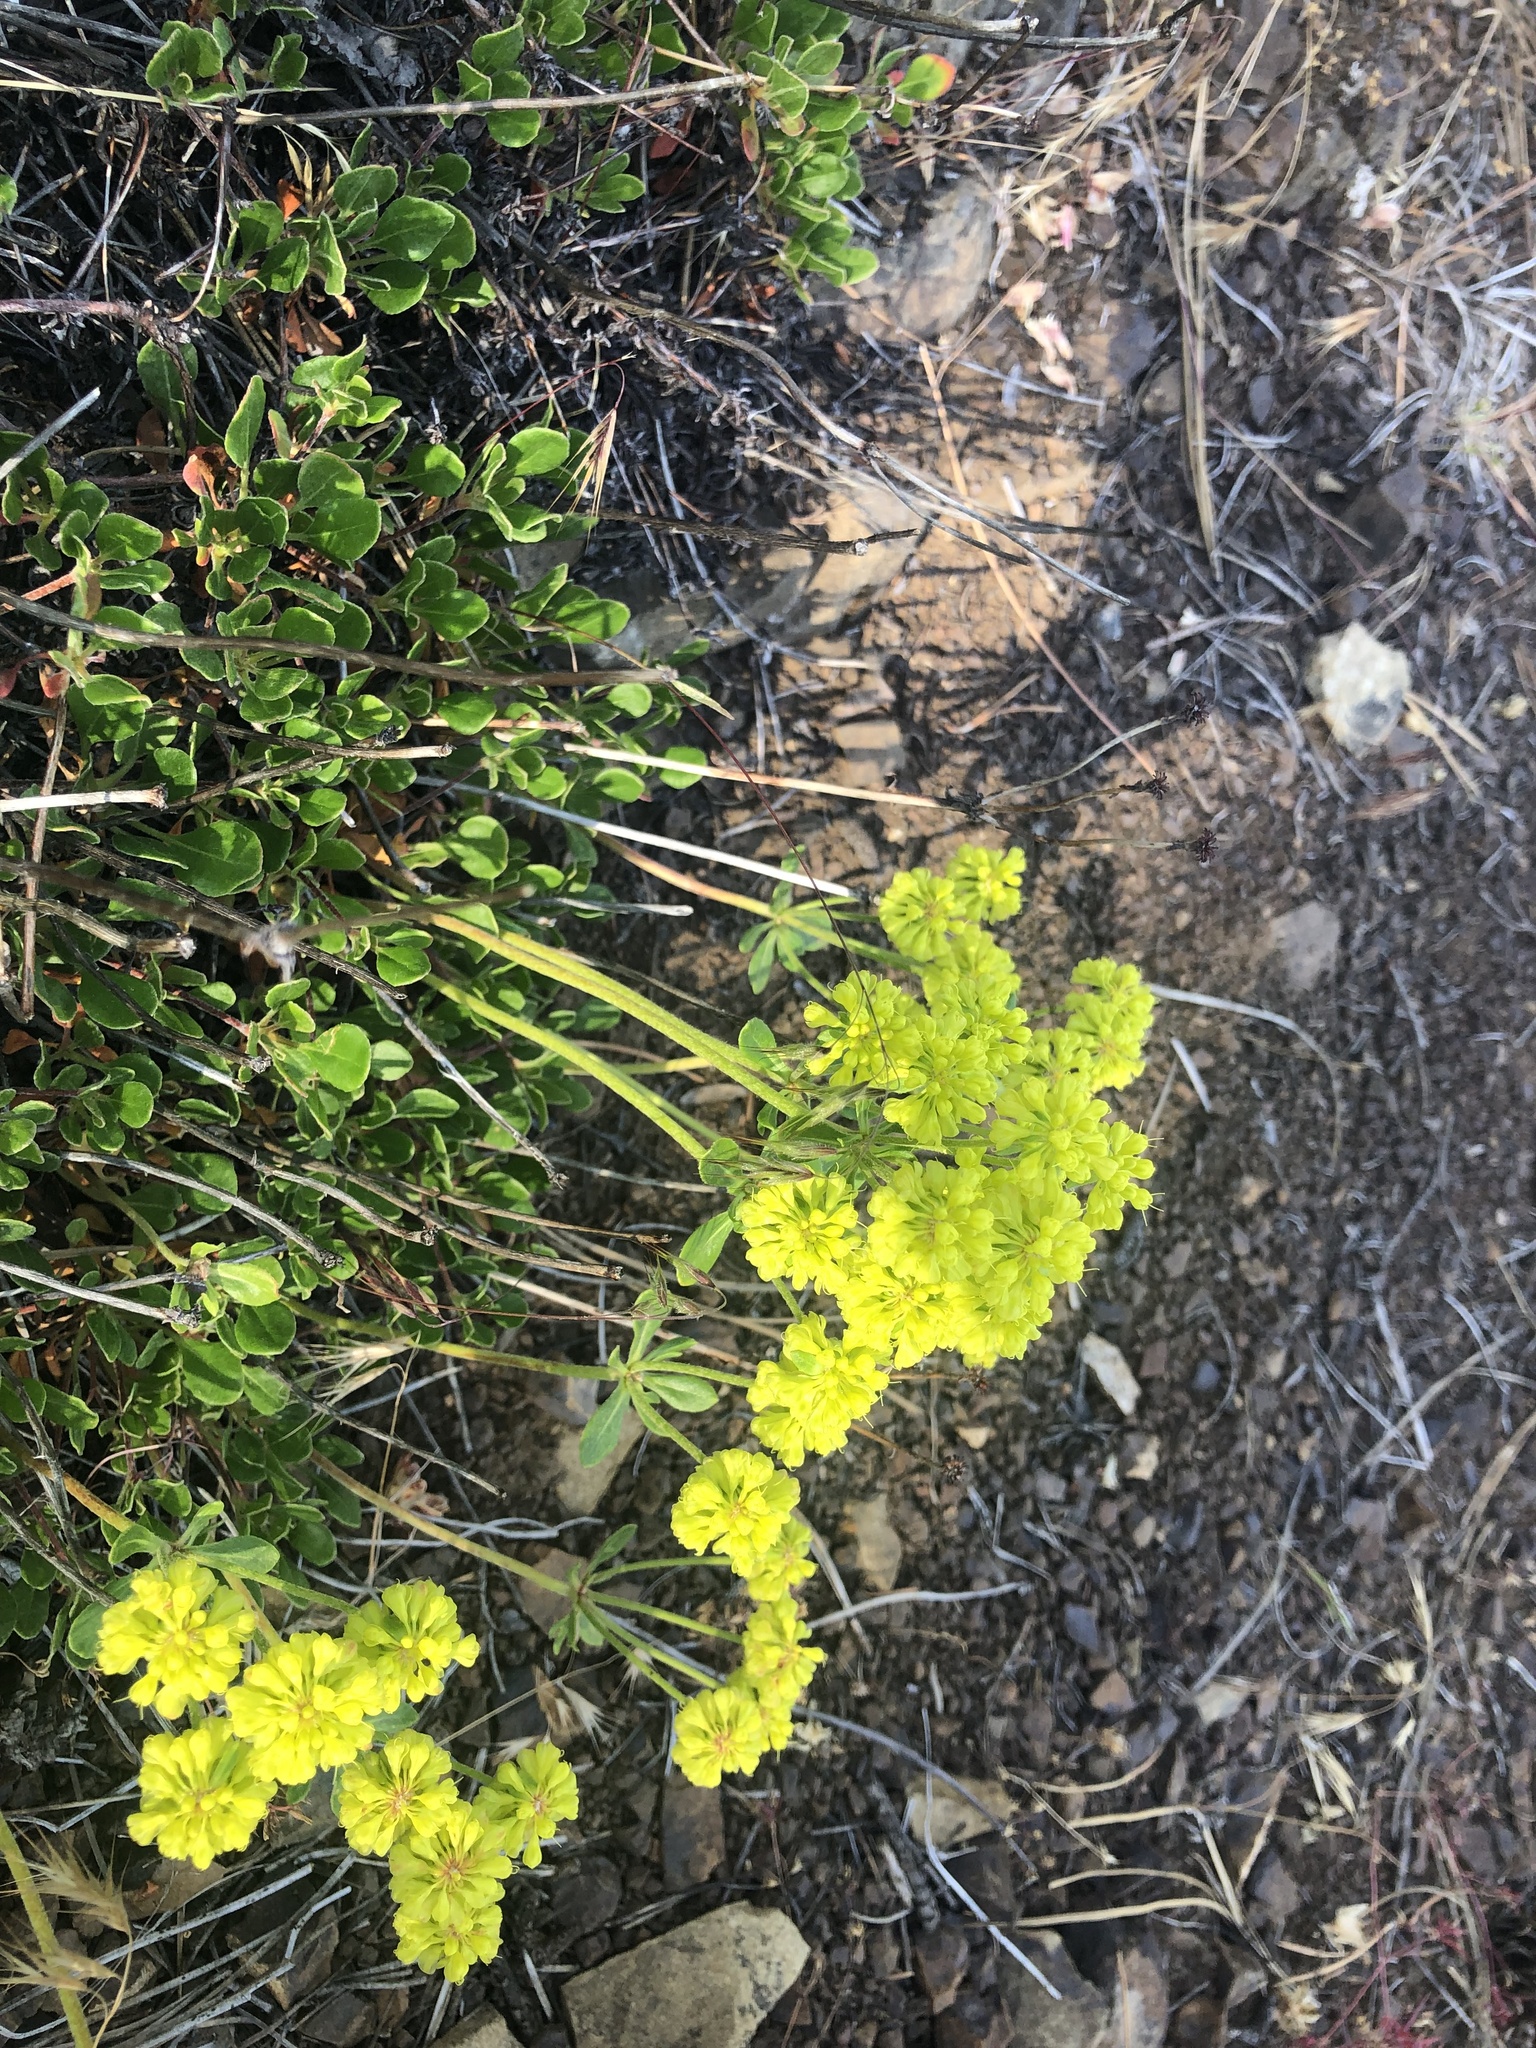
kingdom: Plantae
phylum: Tracheophyta
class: Magnoliopsida
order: Caryophyllales
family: Polygonaceae
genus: Eriogonum
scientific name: Eriogonum umbellatum
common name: Sulfur-buckwheat
